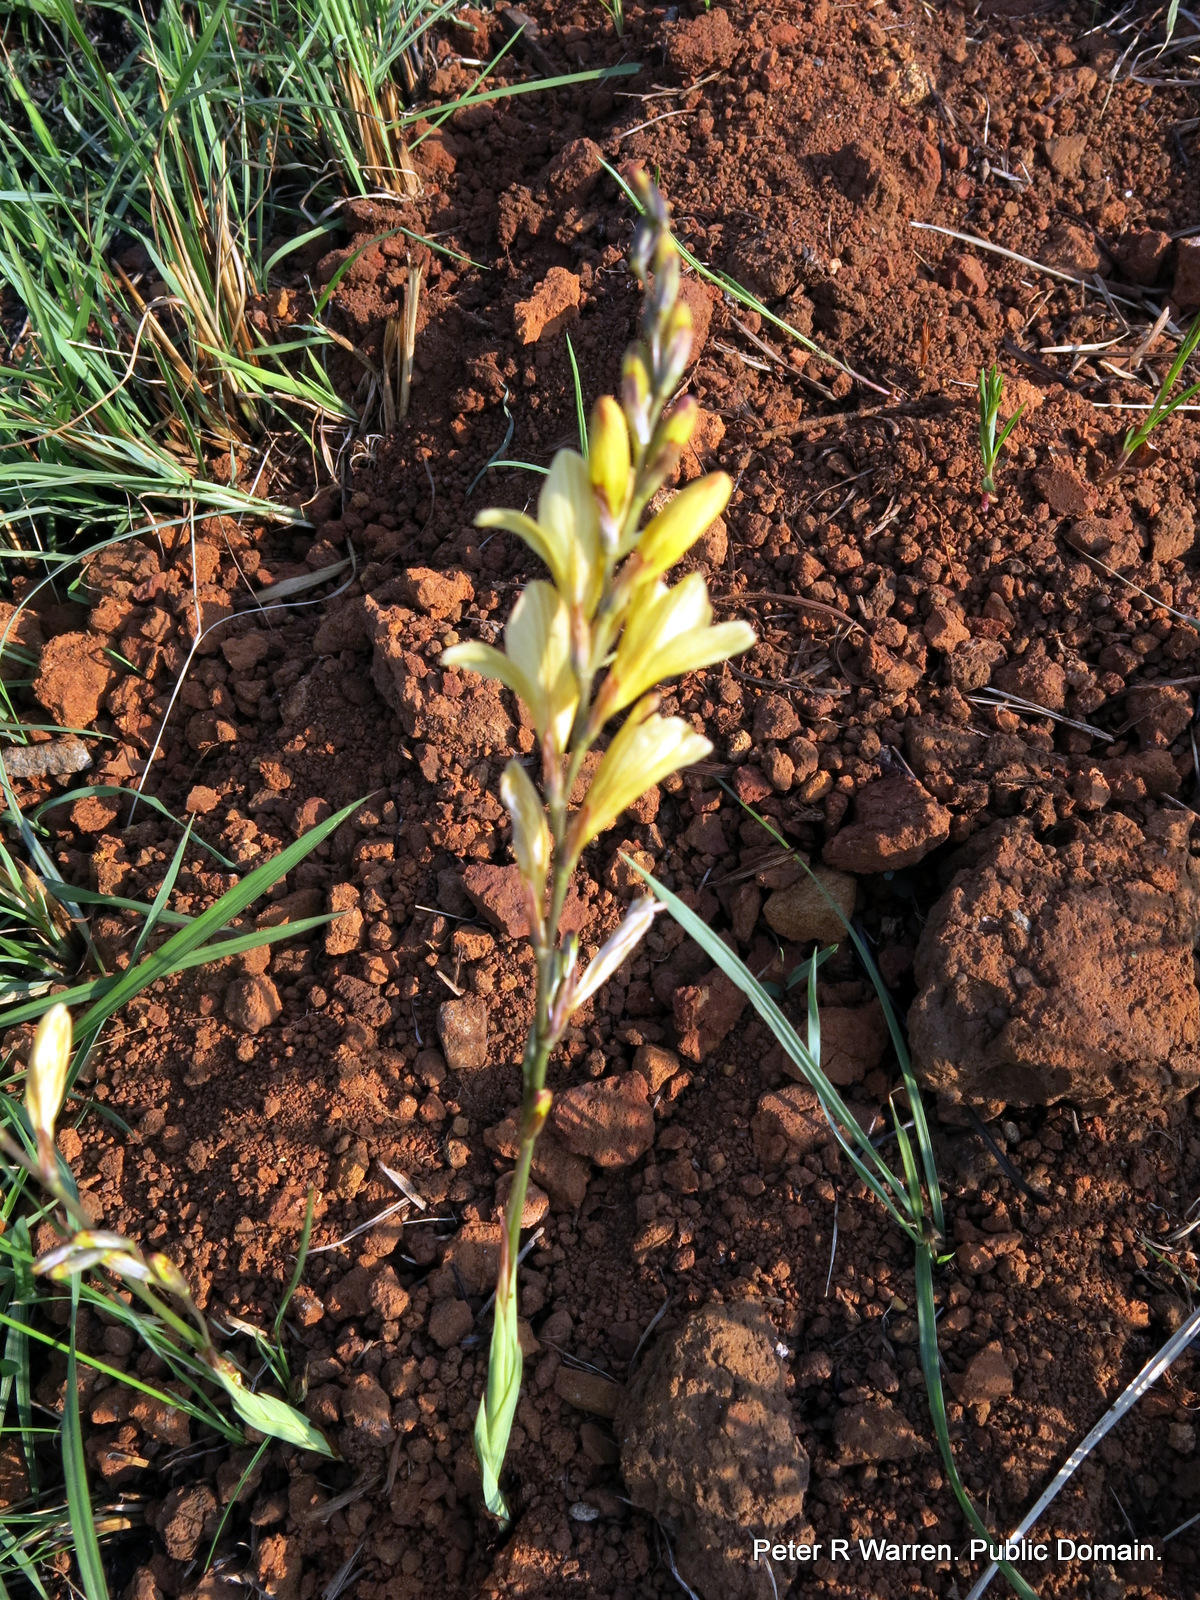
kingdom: Plantae
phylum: Tracheophyta
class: Liliopsida
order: Asparagales
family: Iridaceae
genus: Tritonia
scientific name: Tritonia gladiolaris
